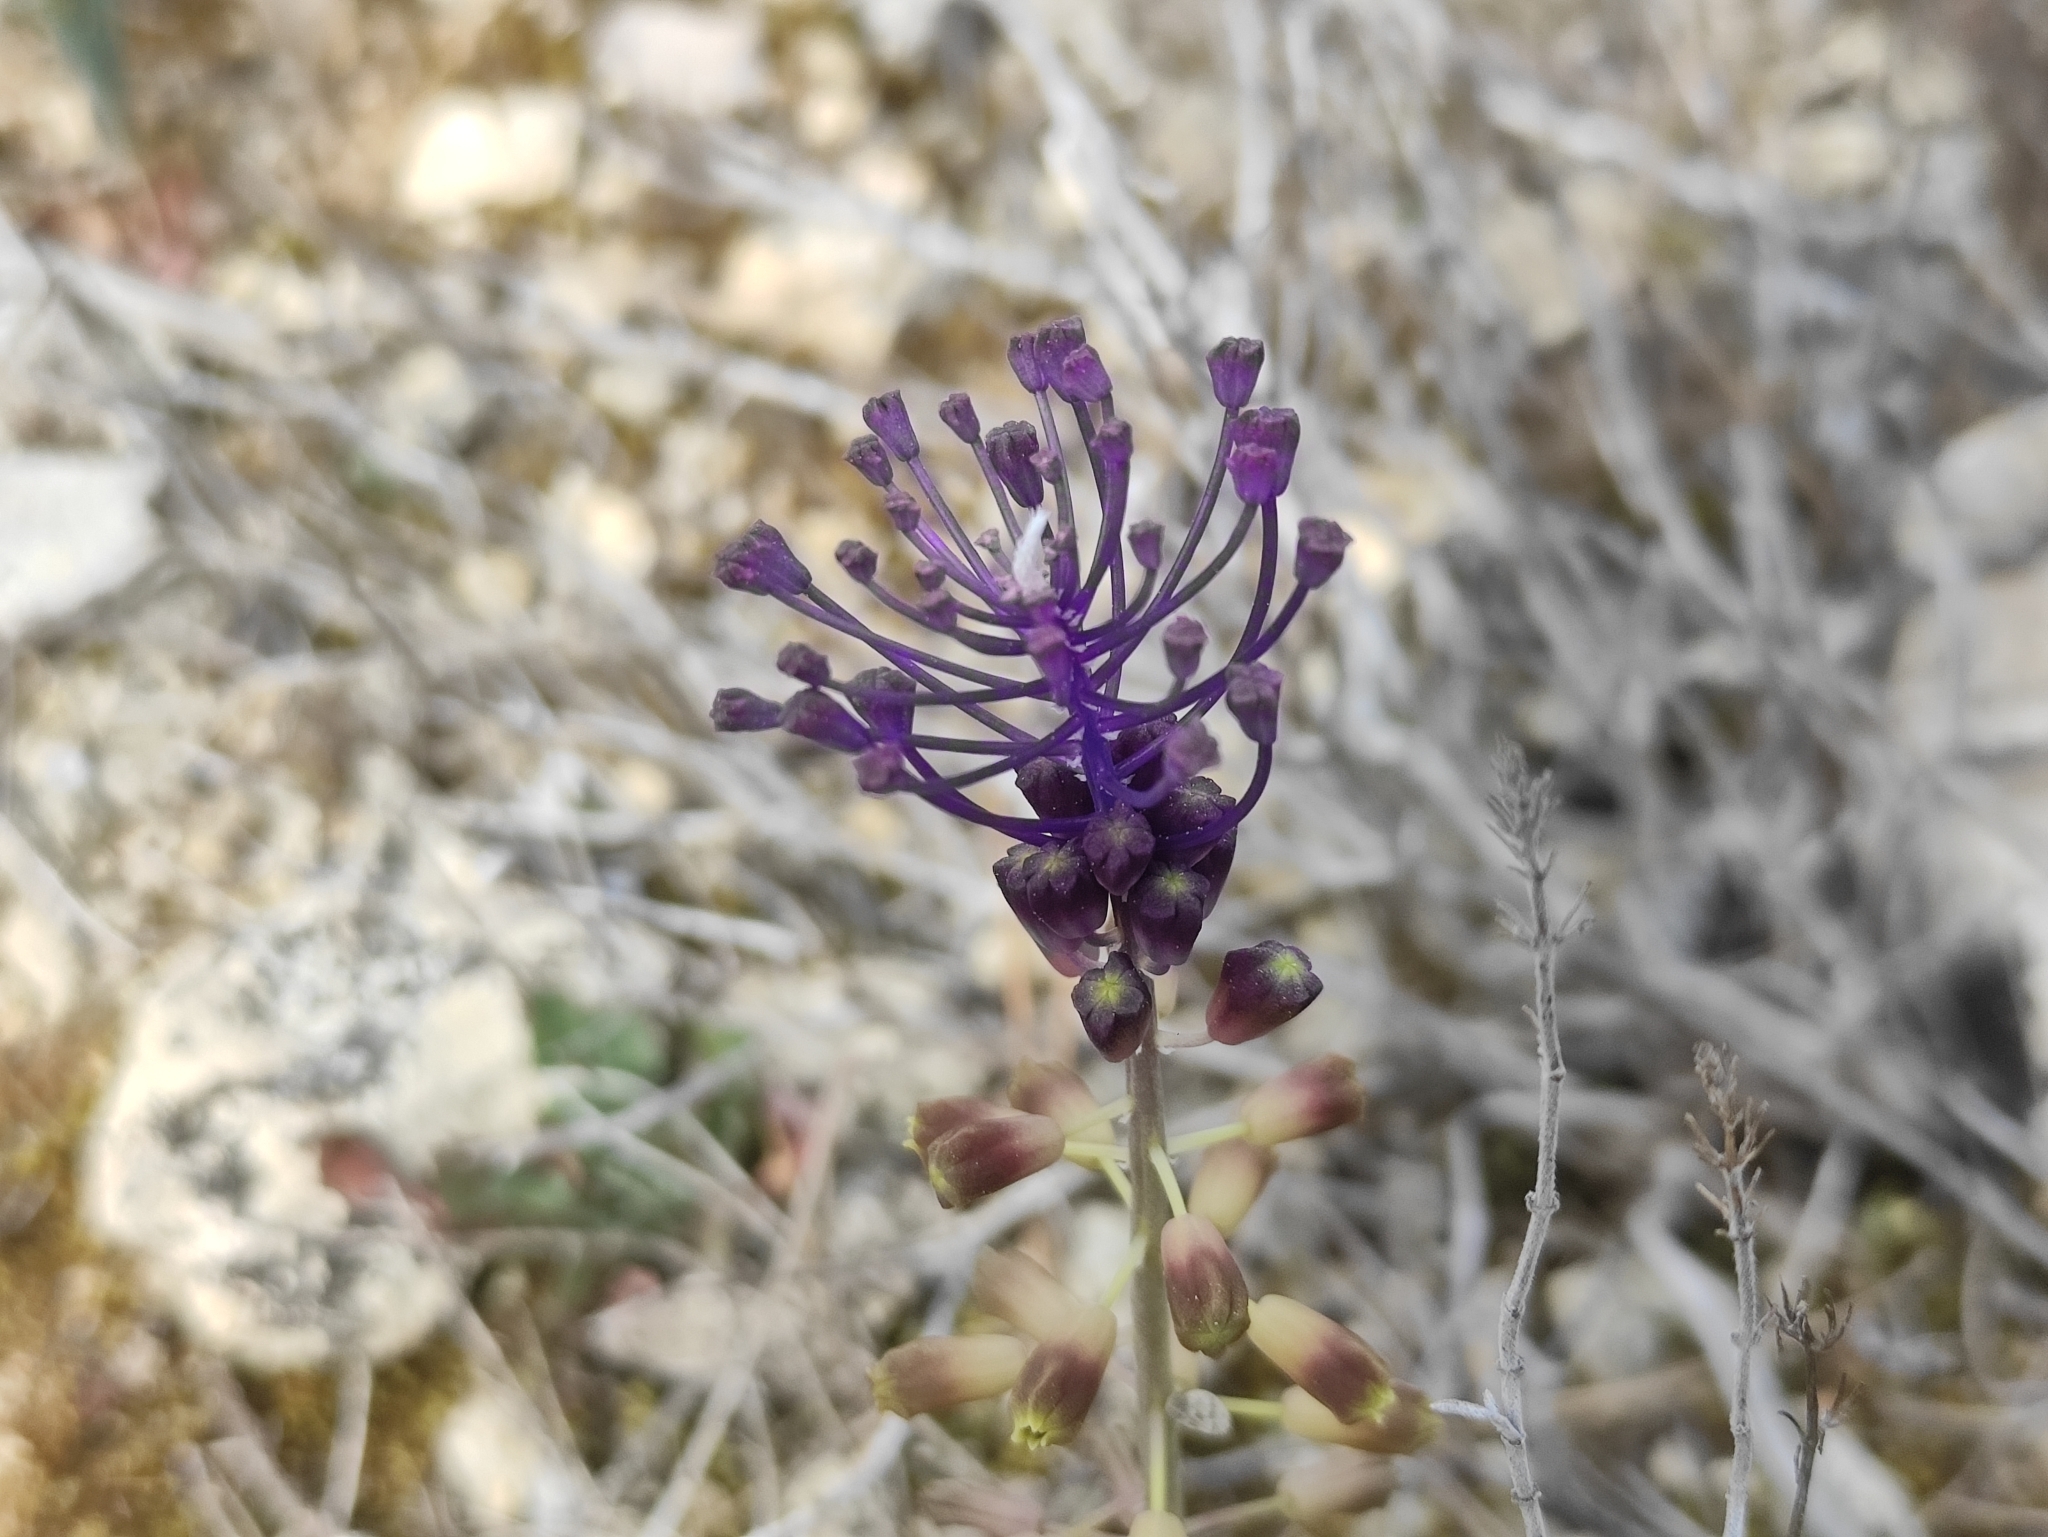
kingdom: Plantae
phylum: Tracheophyta
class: Liliopsida
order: Asparagales
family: Asparagaceae
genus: Muscari
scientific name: Muscari comosum
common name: Tassel hyacinth
